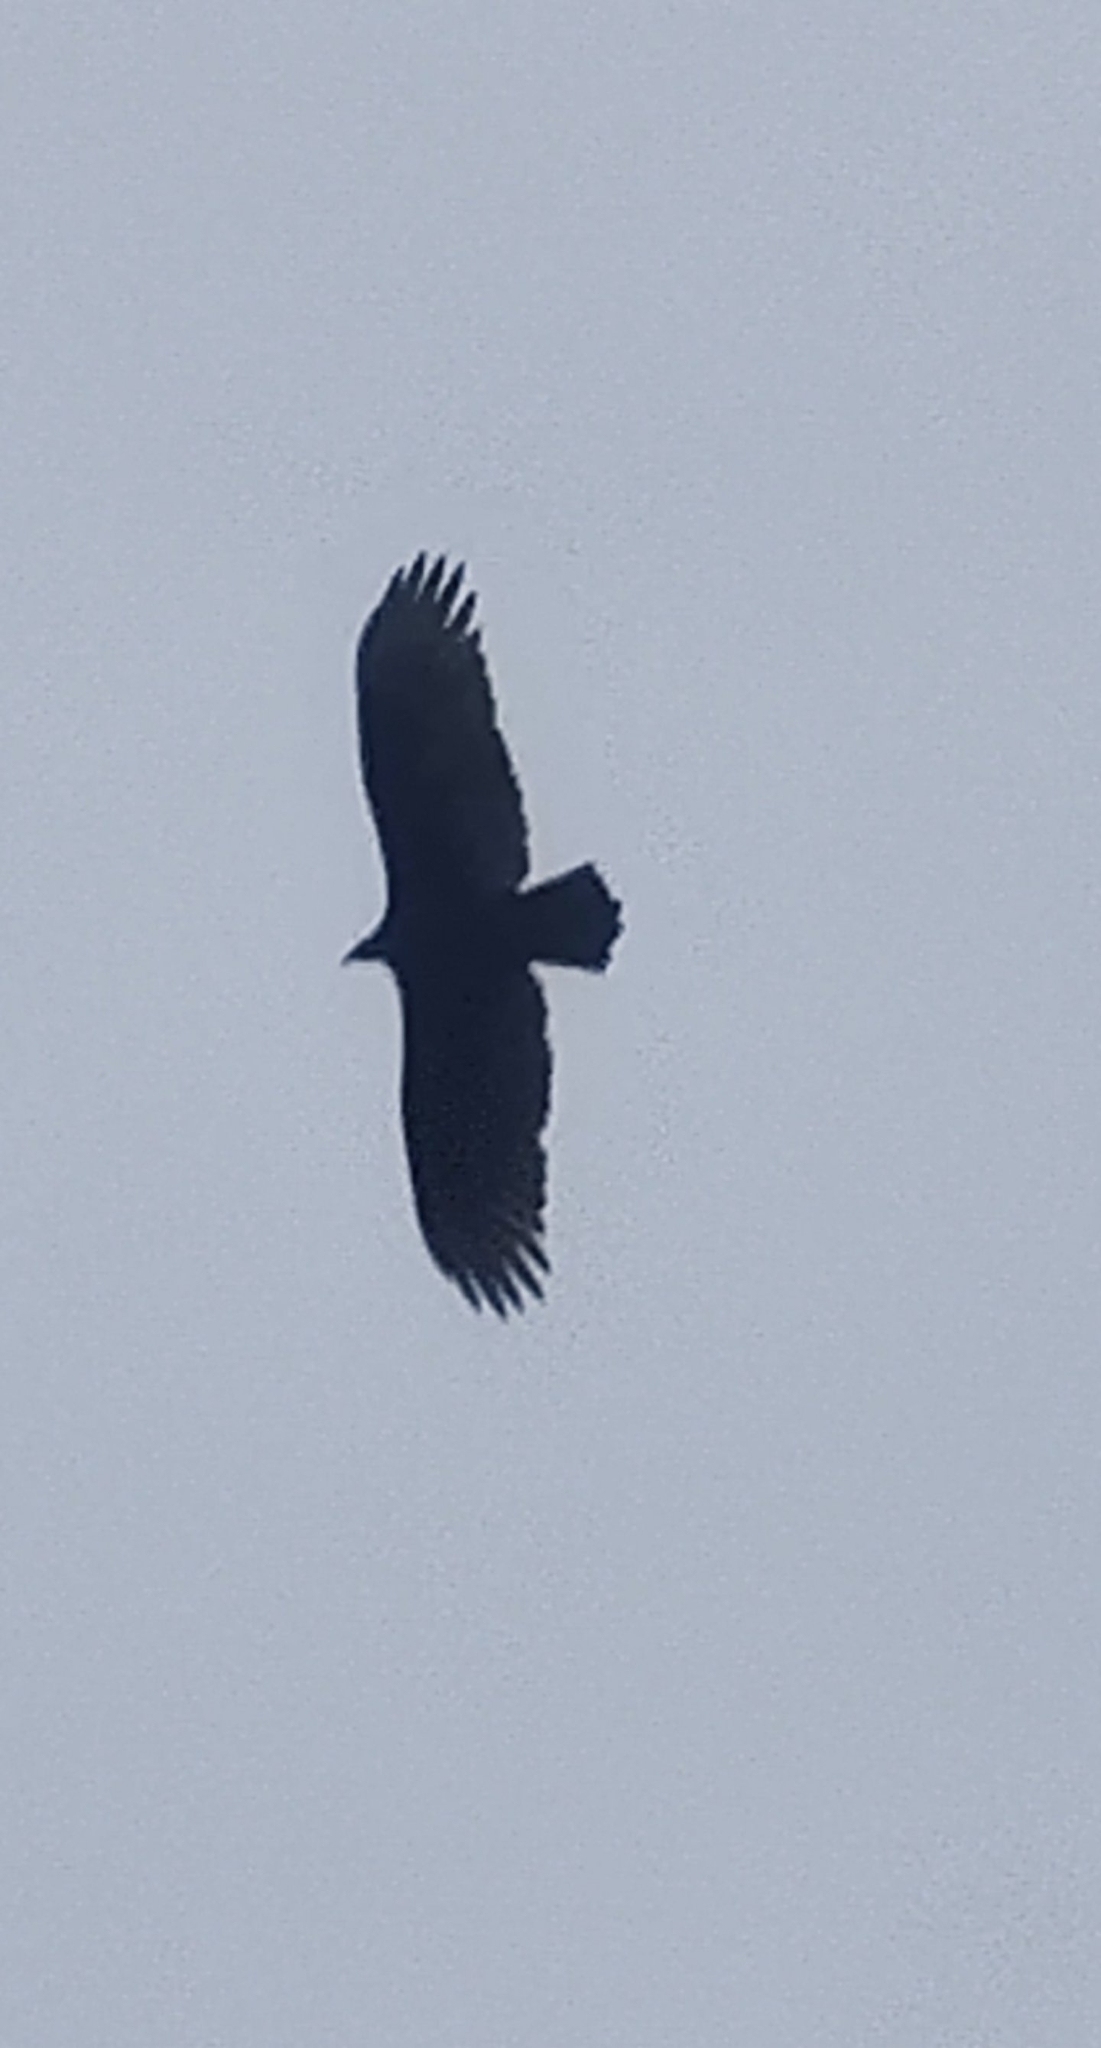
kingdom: Animalia
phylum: Chordata
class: Aves
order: Accipitriformes
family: Cathartidae
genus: Cathartes
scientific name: Cathartes aura
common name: Turkey vulture
